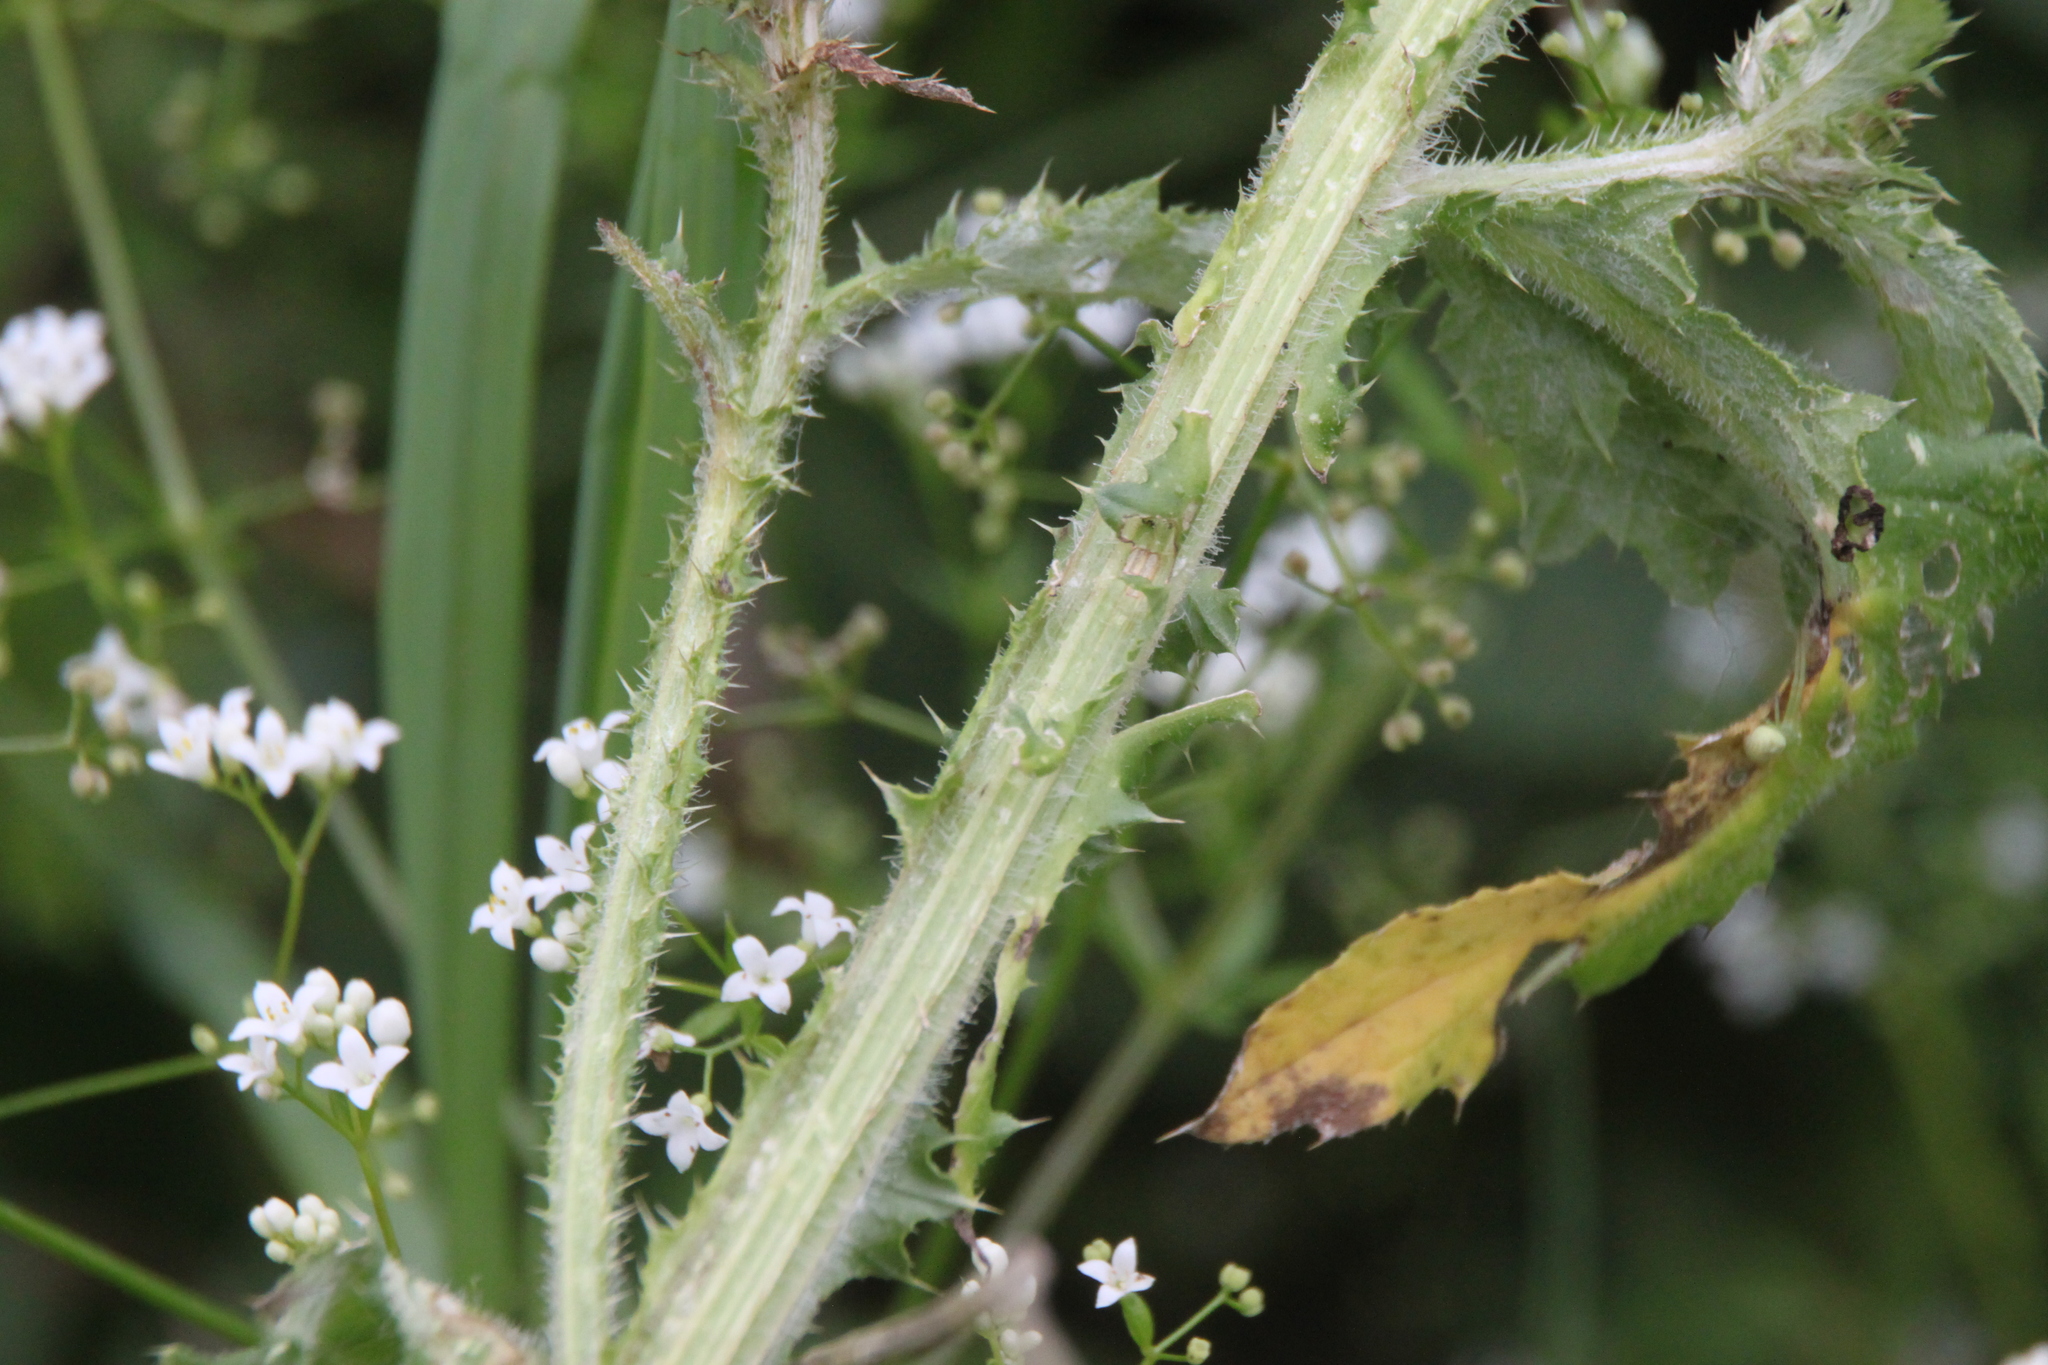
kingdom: Plantae
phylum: Tracheophyta
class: Magnoliopsida
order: Asterales
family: Asteraceae
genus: Carduus
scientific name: Carduus crispus
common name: Welted thistle
